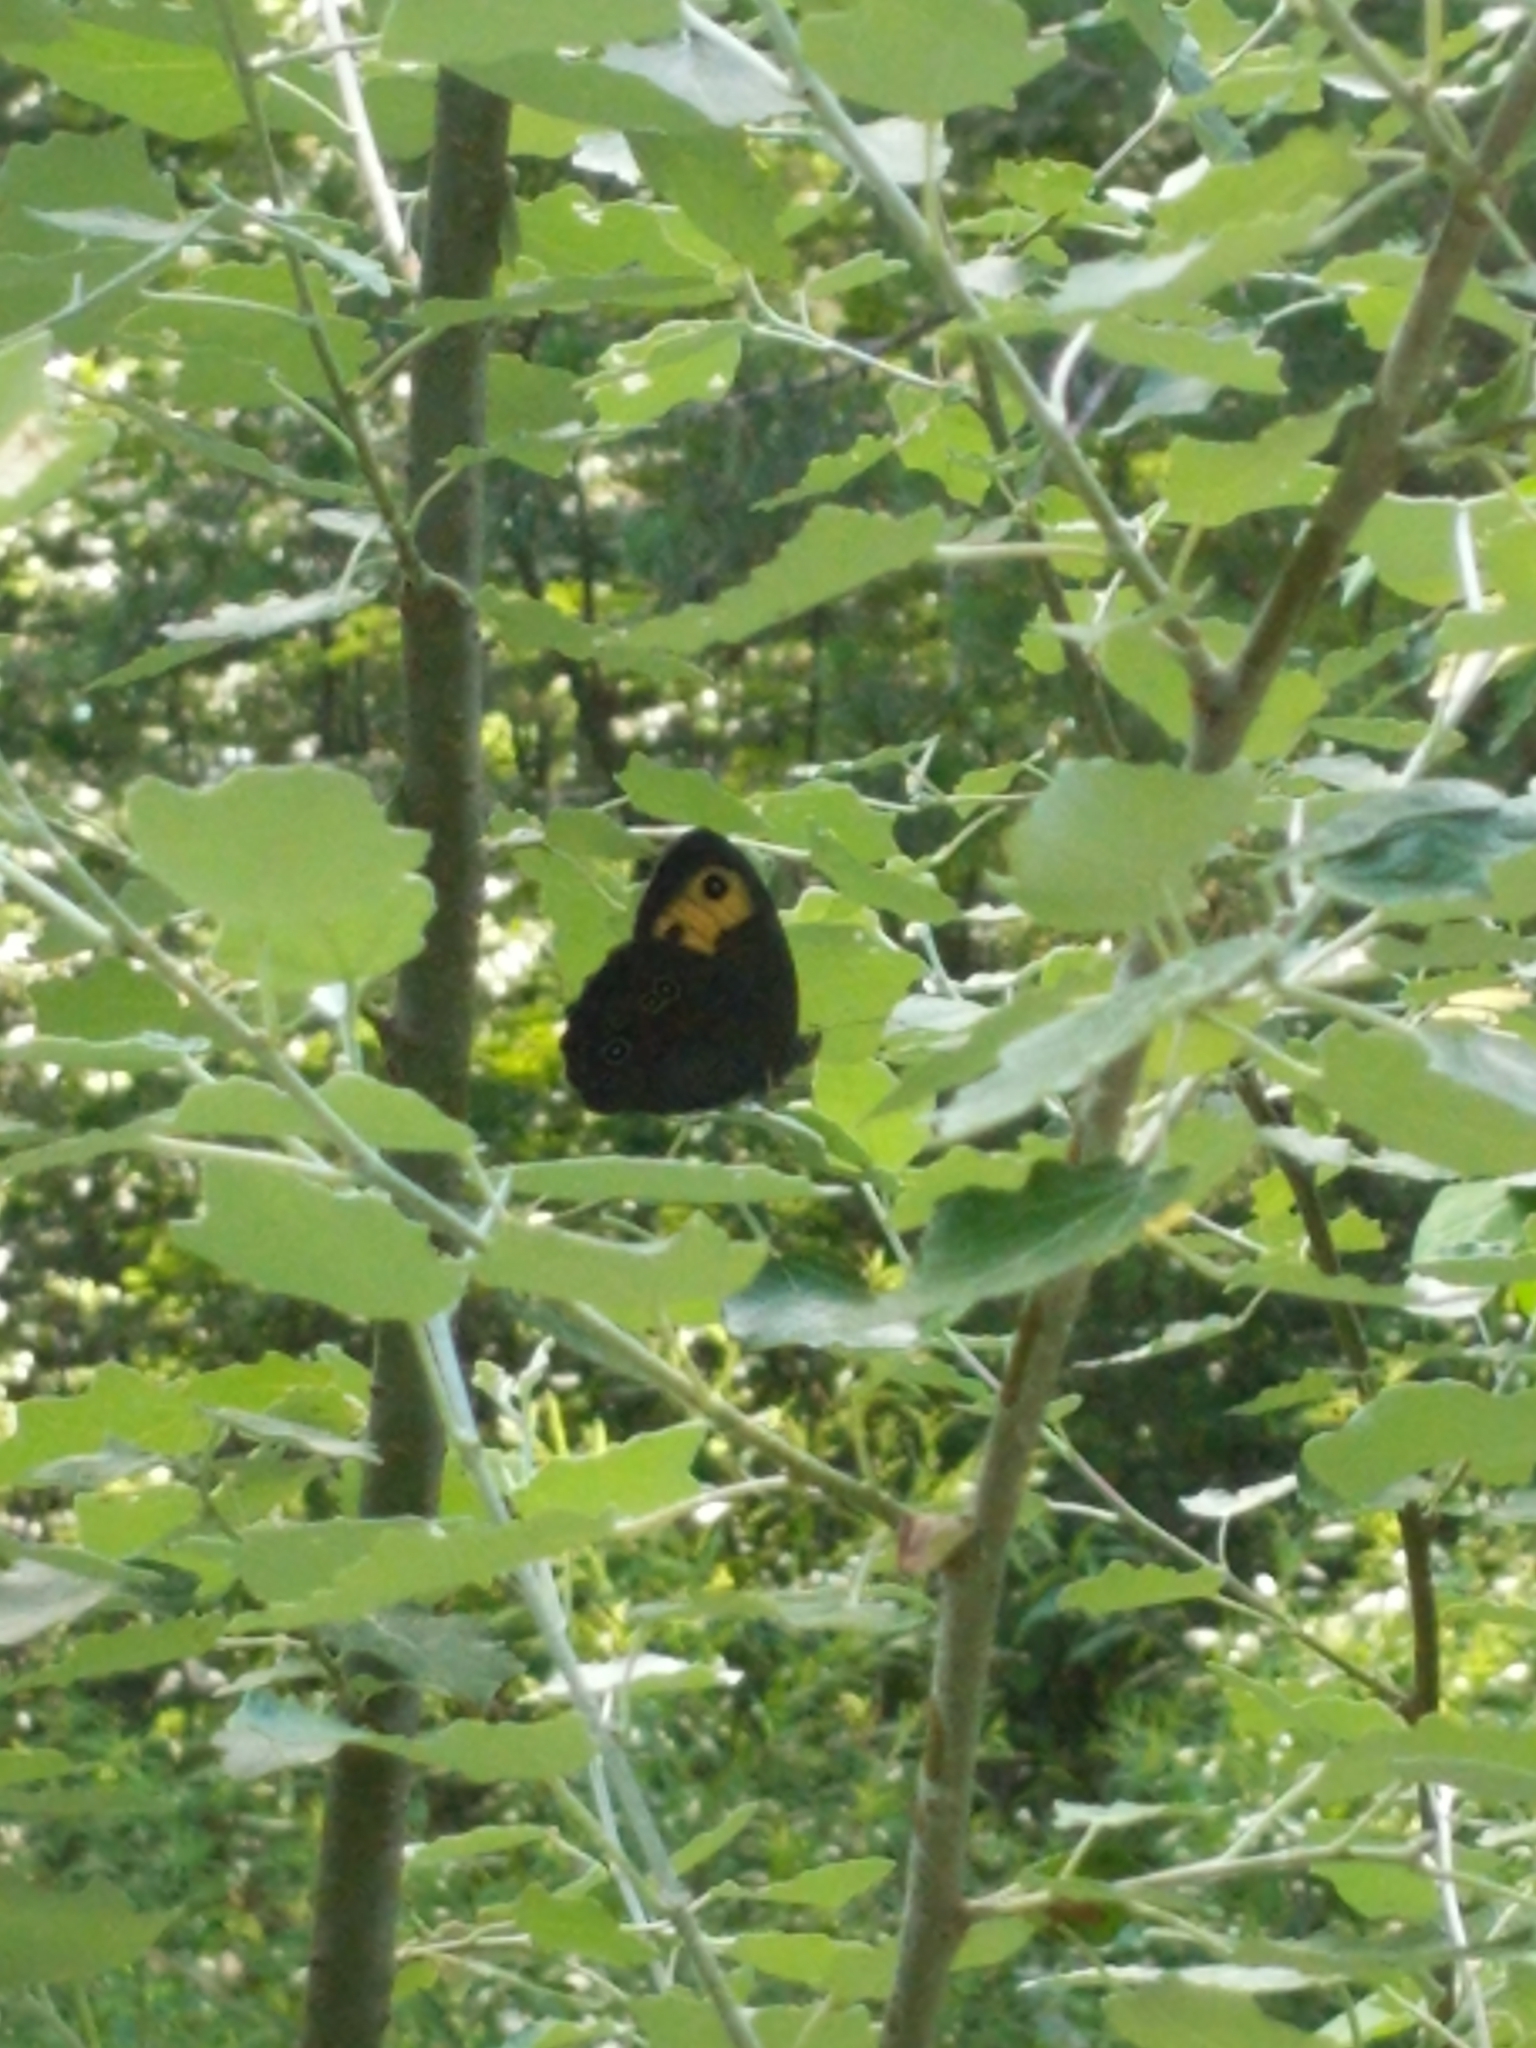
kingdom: Animalia
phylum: Arthropoda
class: Insecta
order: Lepidoptera
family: Nymphalidae
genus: Cercyonis
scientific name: Cercyonis pegala
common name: Common wood-nymph
